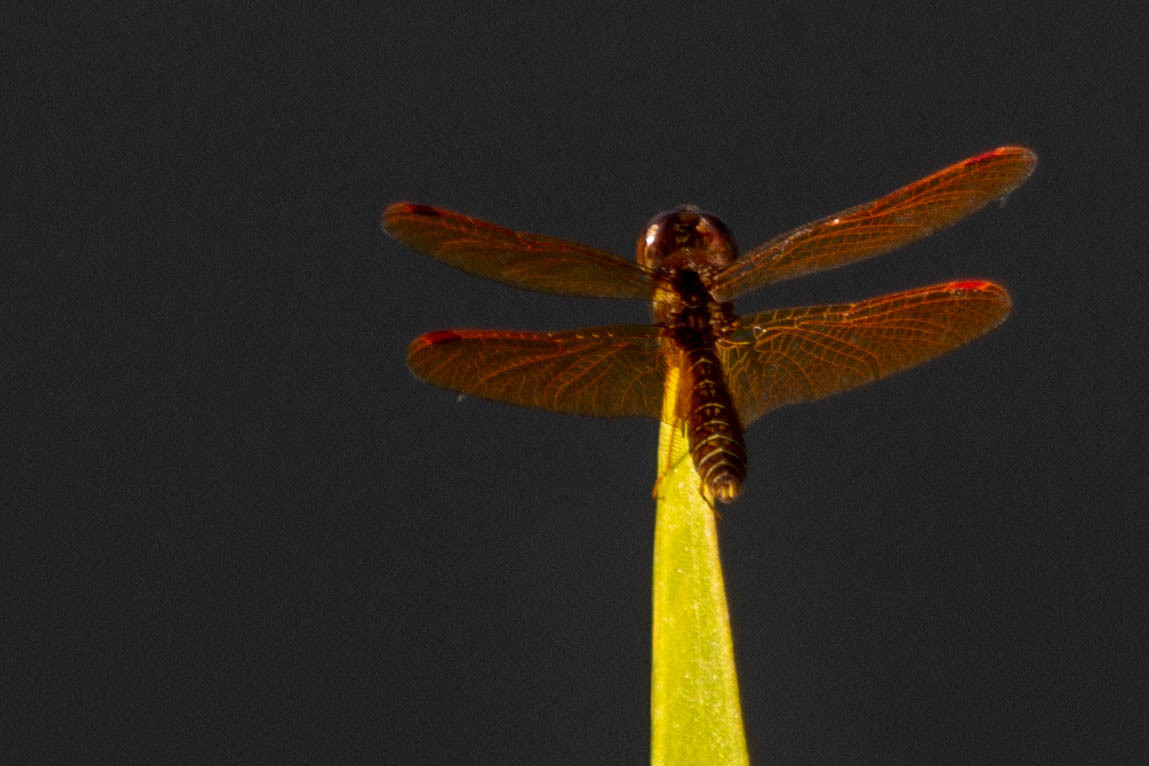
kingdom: Animalia
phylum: Arthropoda
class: Insecta
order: Odonata
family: Libellulidae
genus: Perithemis
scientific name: Perithemis tenera
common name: Eastern amberwing
